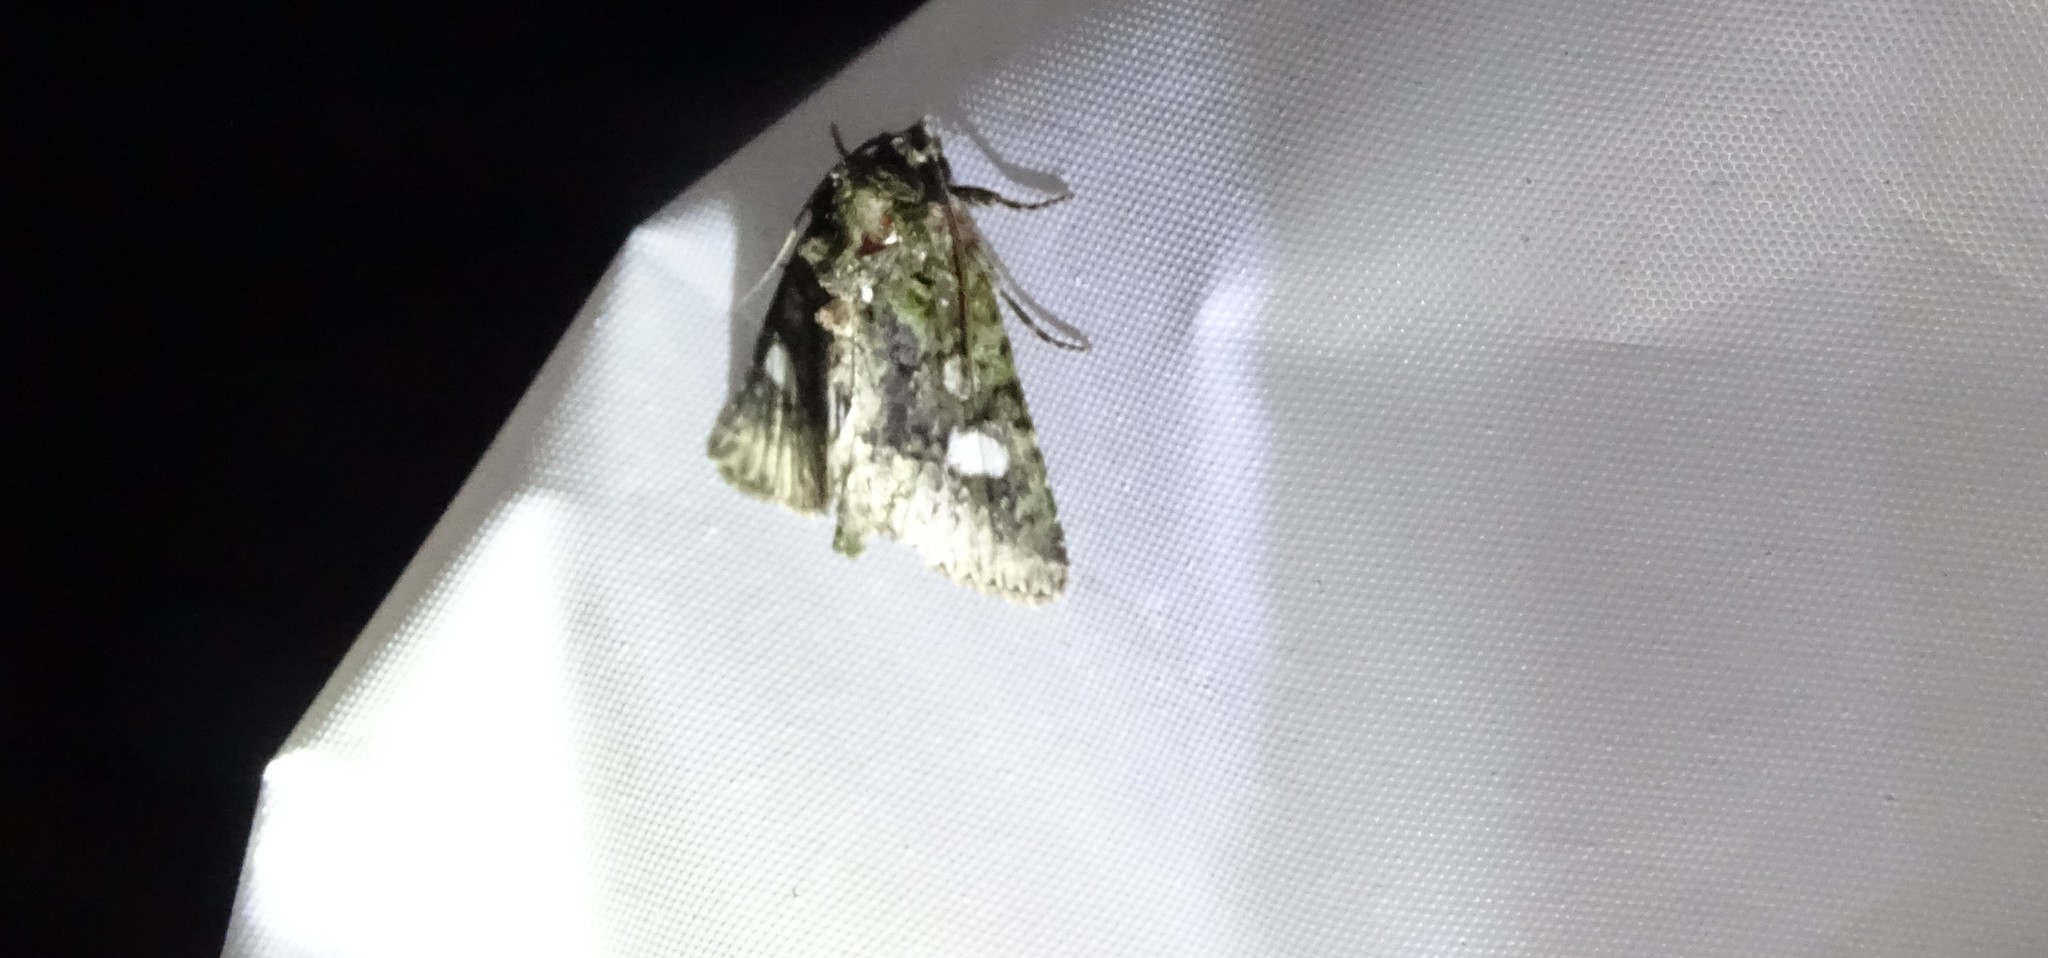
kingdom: Animalia
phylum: Arthropoda
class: Insecta
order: Lepidoptera
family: Noctuidae
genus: Phosphila
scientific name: Phosphila miselioides
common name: Spotted phosphila moth
